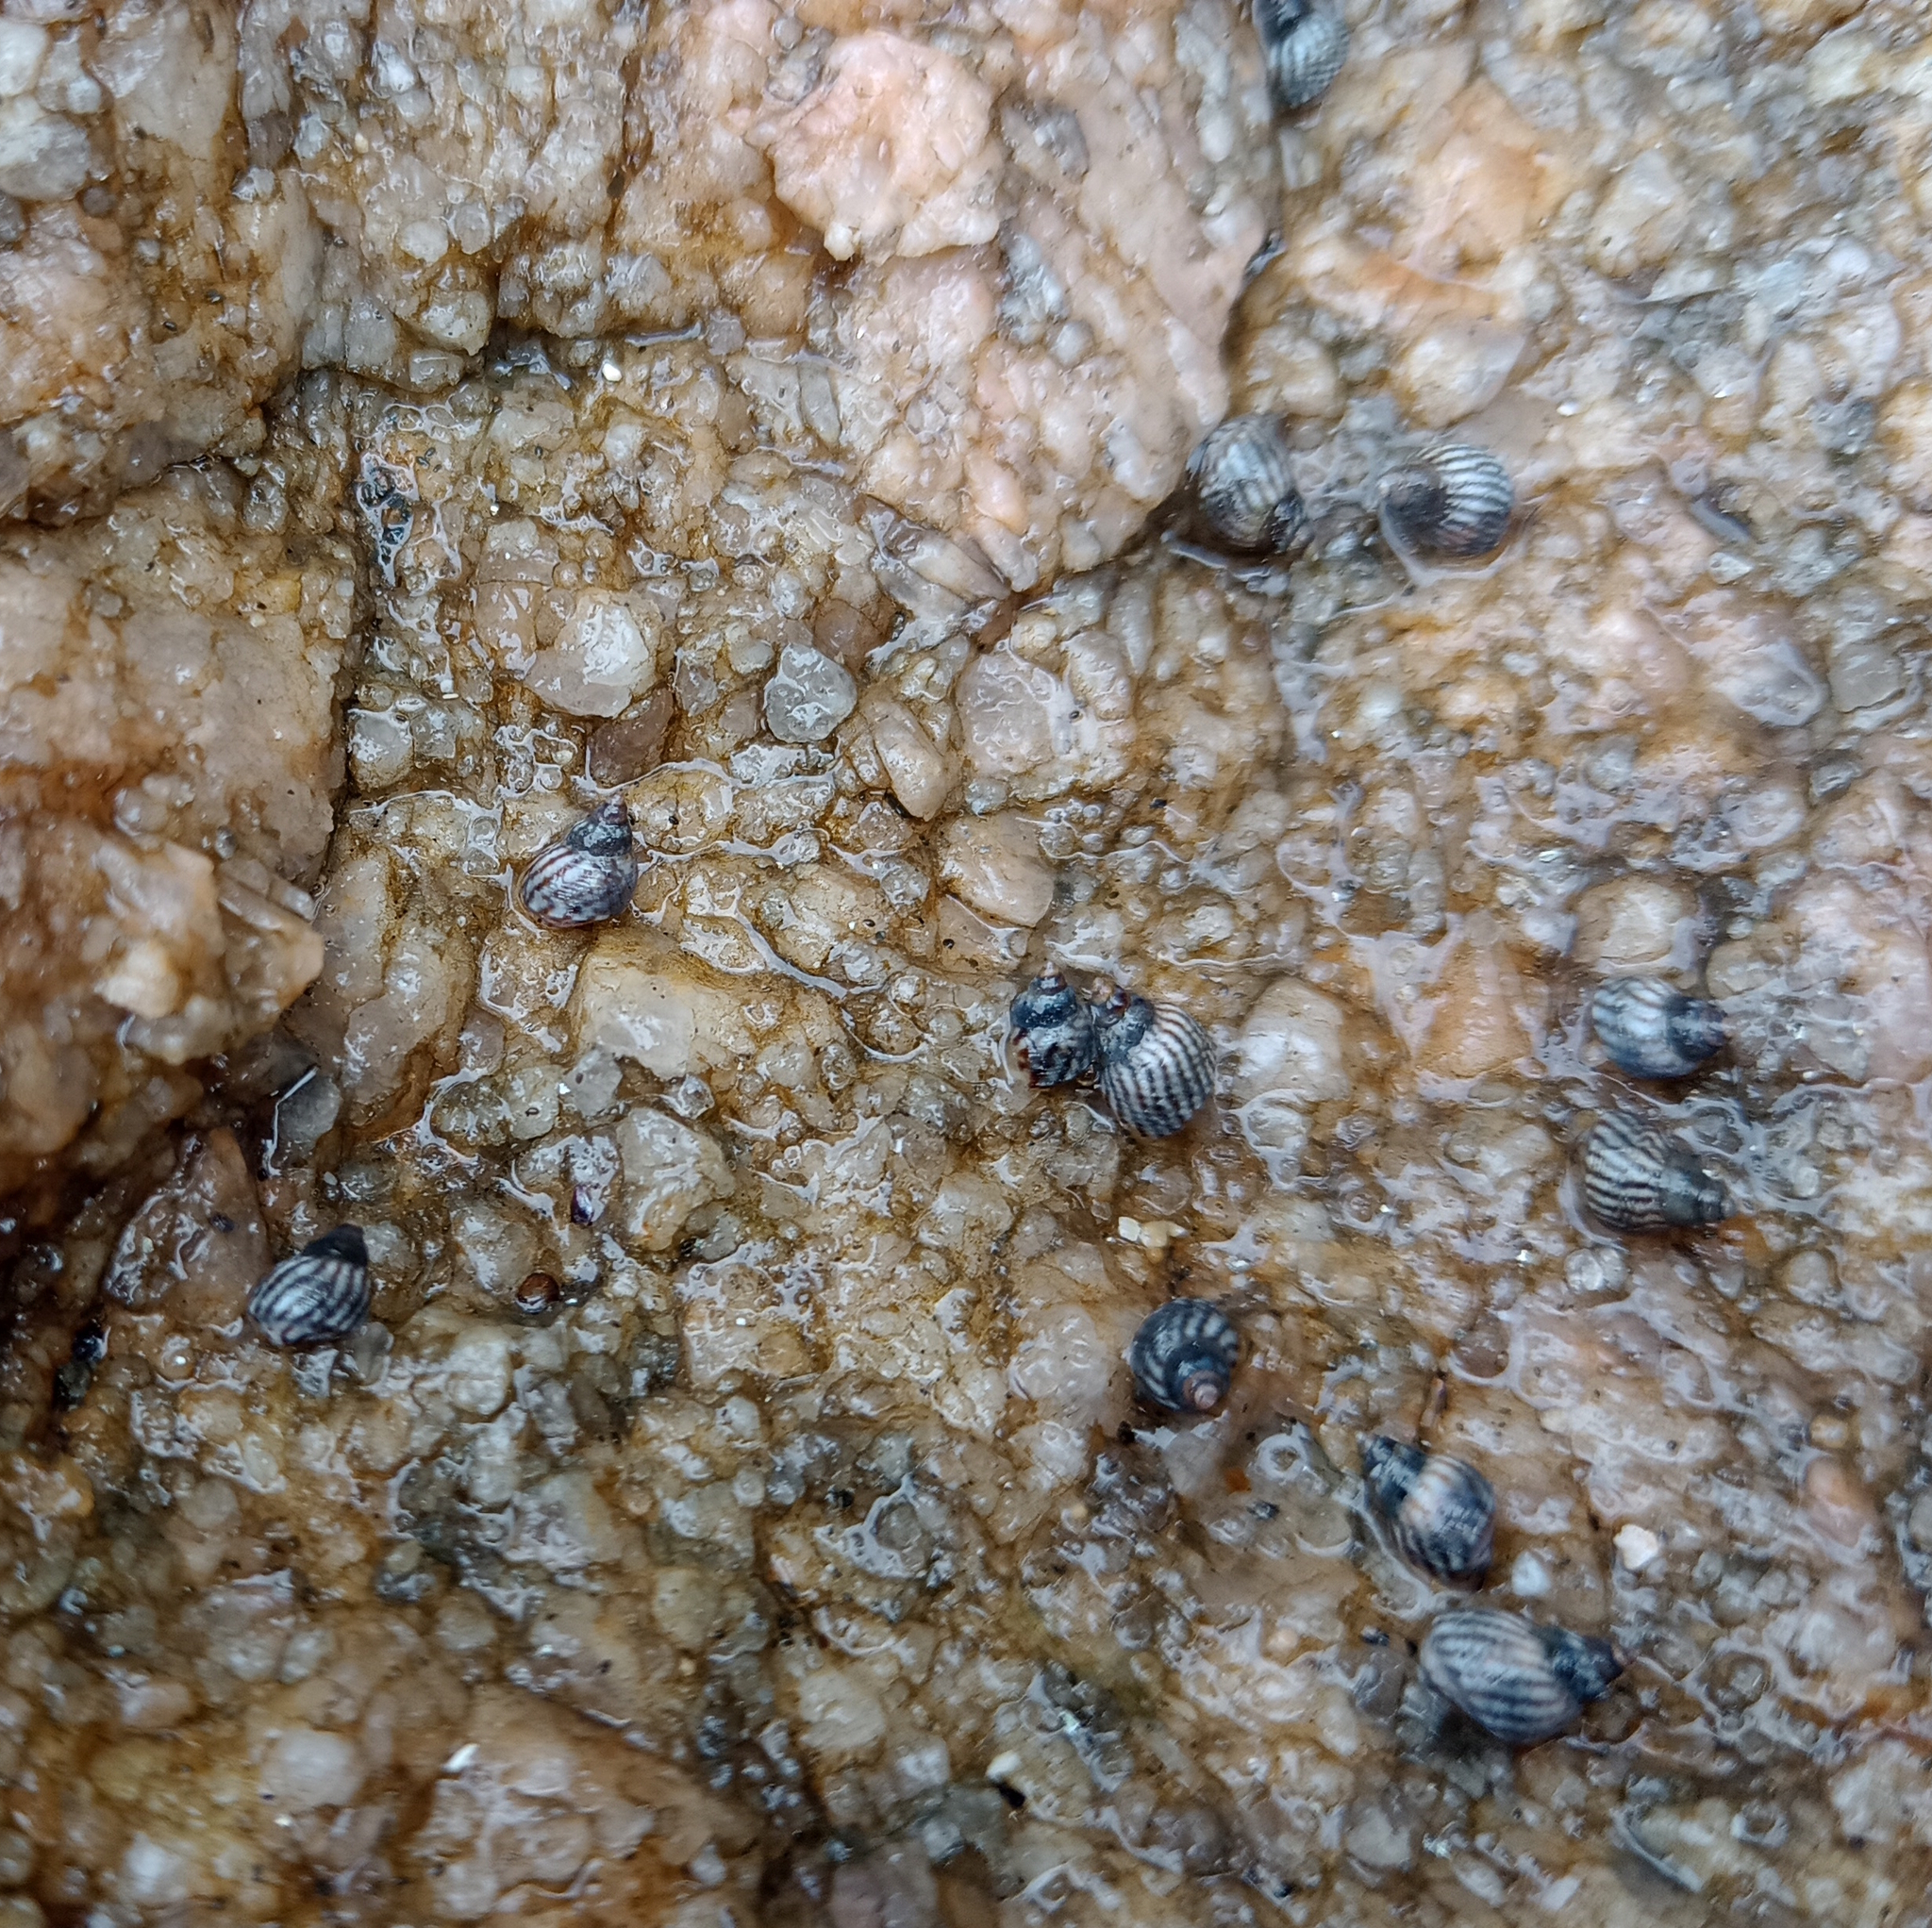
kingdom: Animalia
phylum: Mollusca
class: Gastropoda
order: Littorinimorpha
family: Littorinidae
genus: Echinolittorina
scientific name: Echinolittorina lineolata
